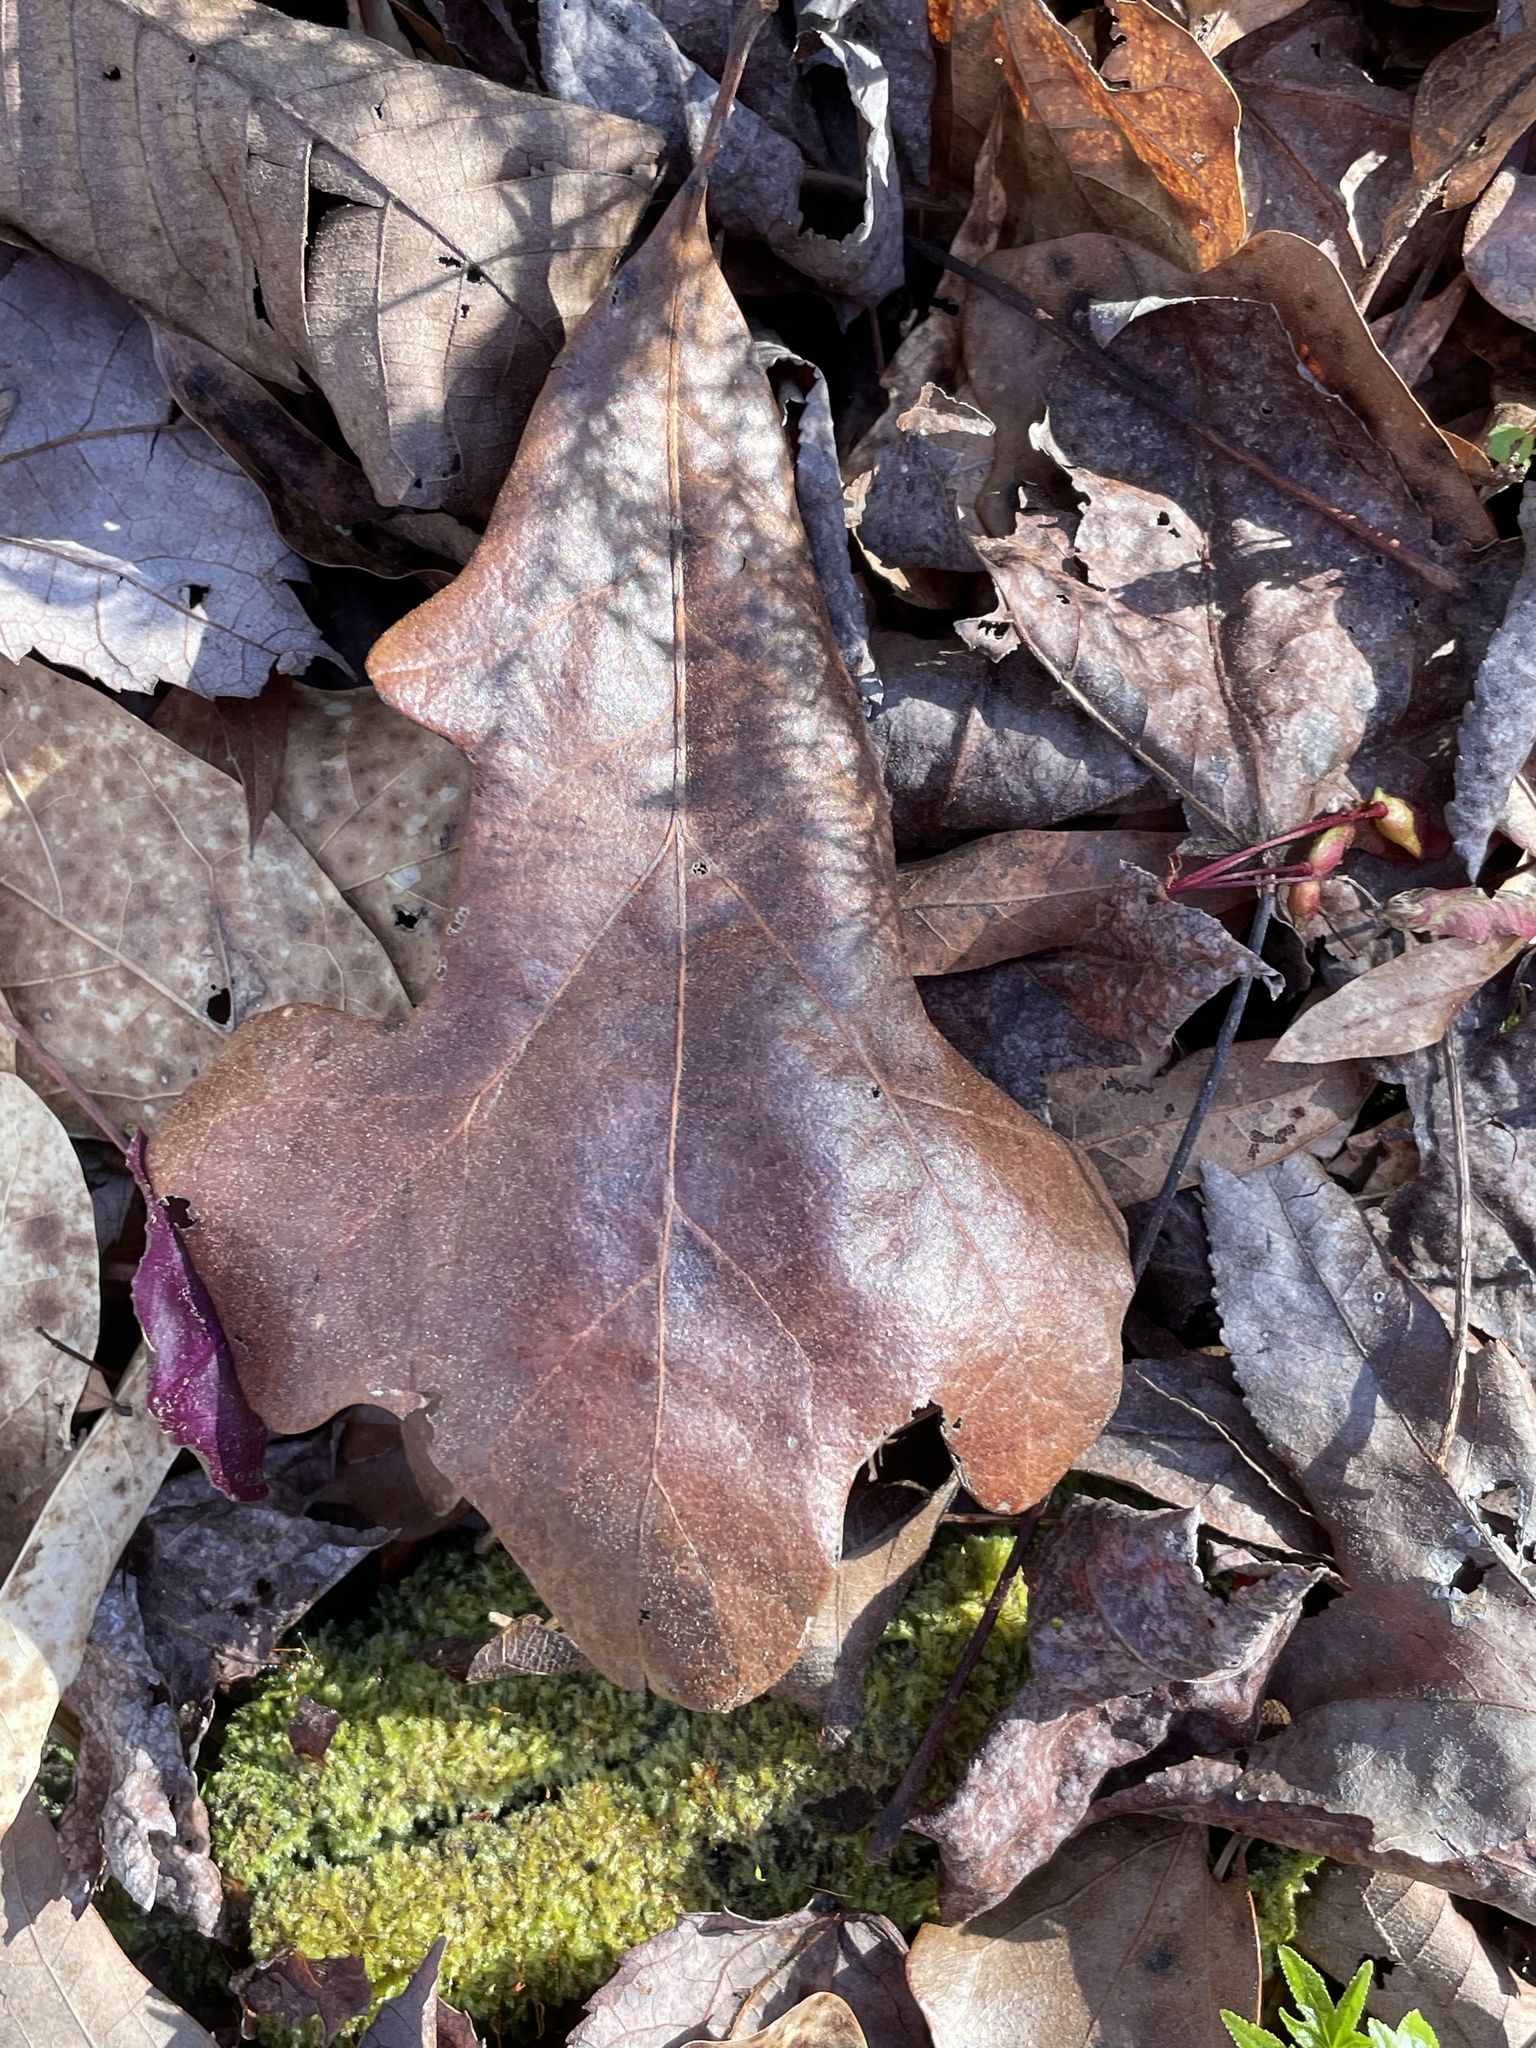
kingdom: Plantae
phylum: Tracheophyta
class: Magnoliopsida
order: Fagales
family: Fagaceae
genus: Quercus
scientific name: Quercus marilandica
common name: Blackjack oak
